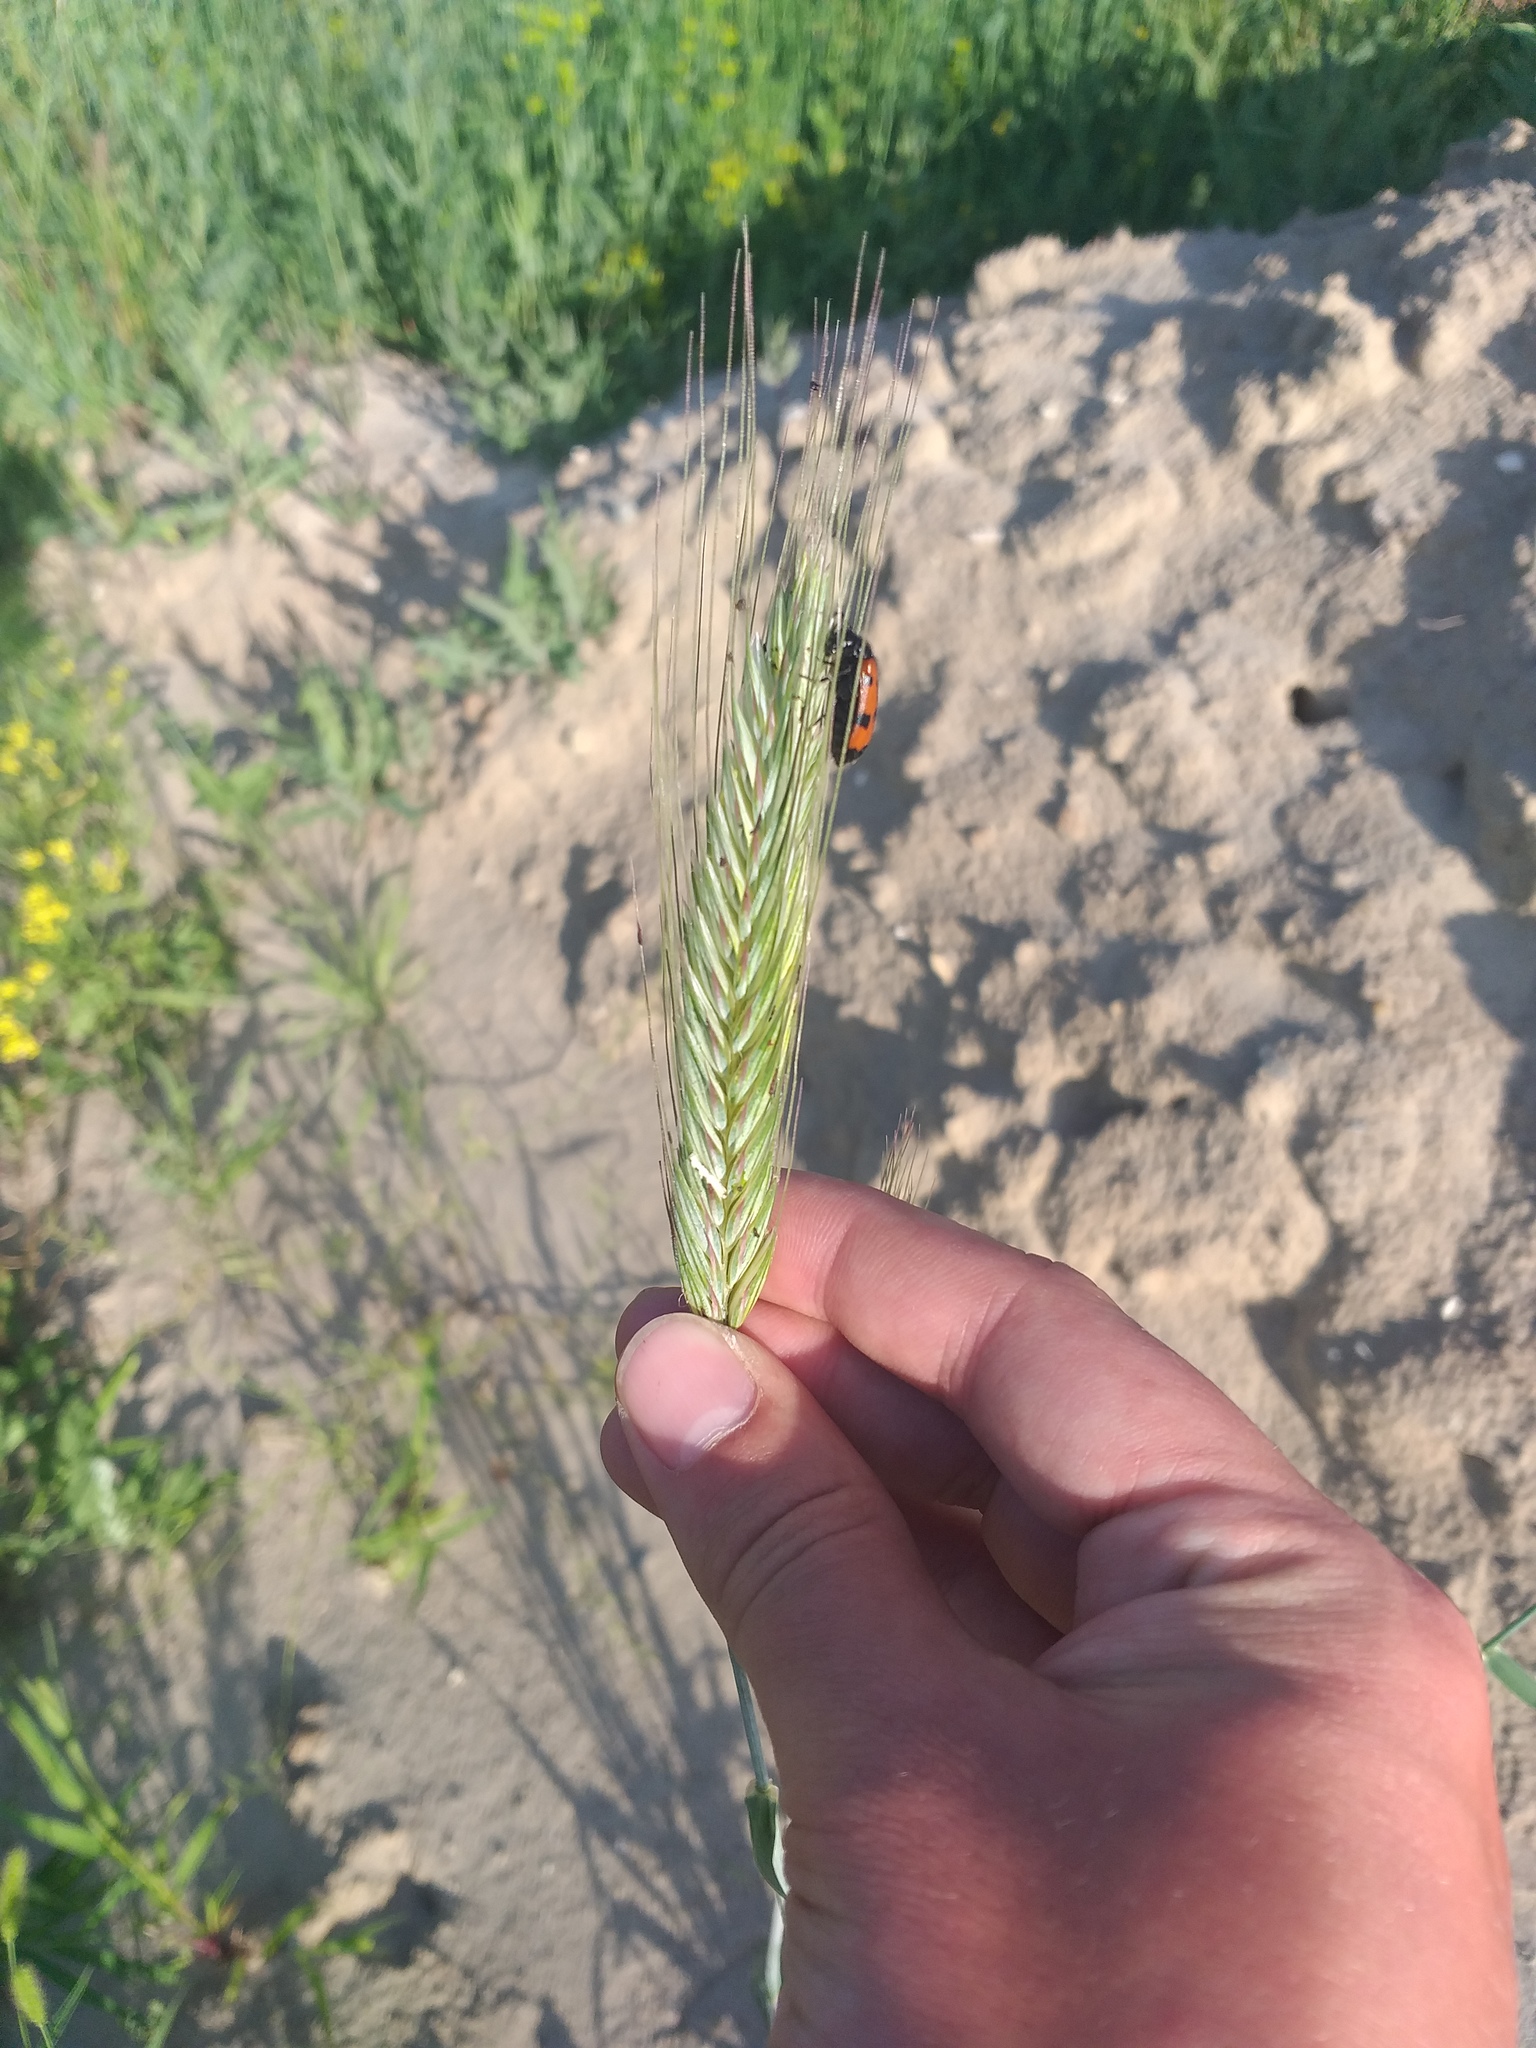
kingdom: Plantae
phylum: Tracheophyta
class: Liliopsida
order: Poales
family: Poaceae
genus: Hordeum
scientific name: Hordeum vulgare
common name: Common barley
